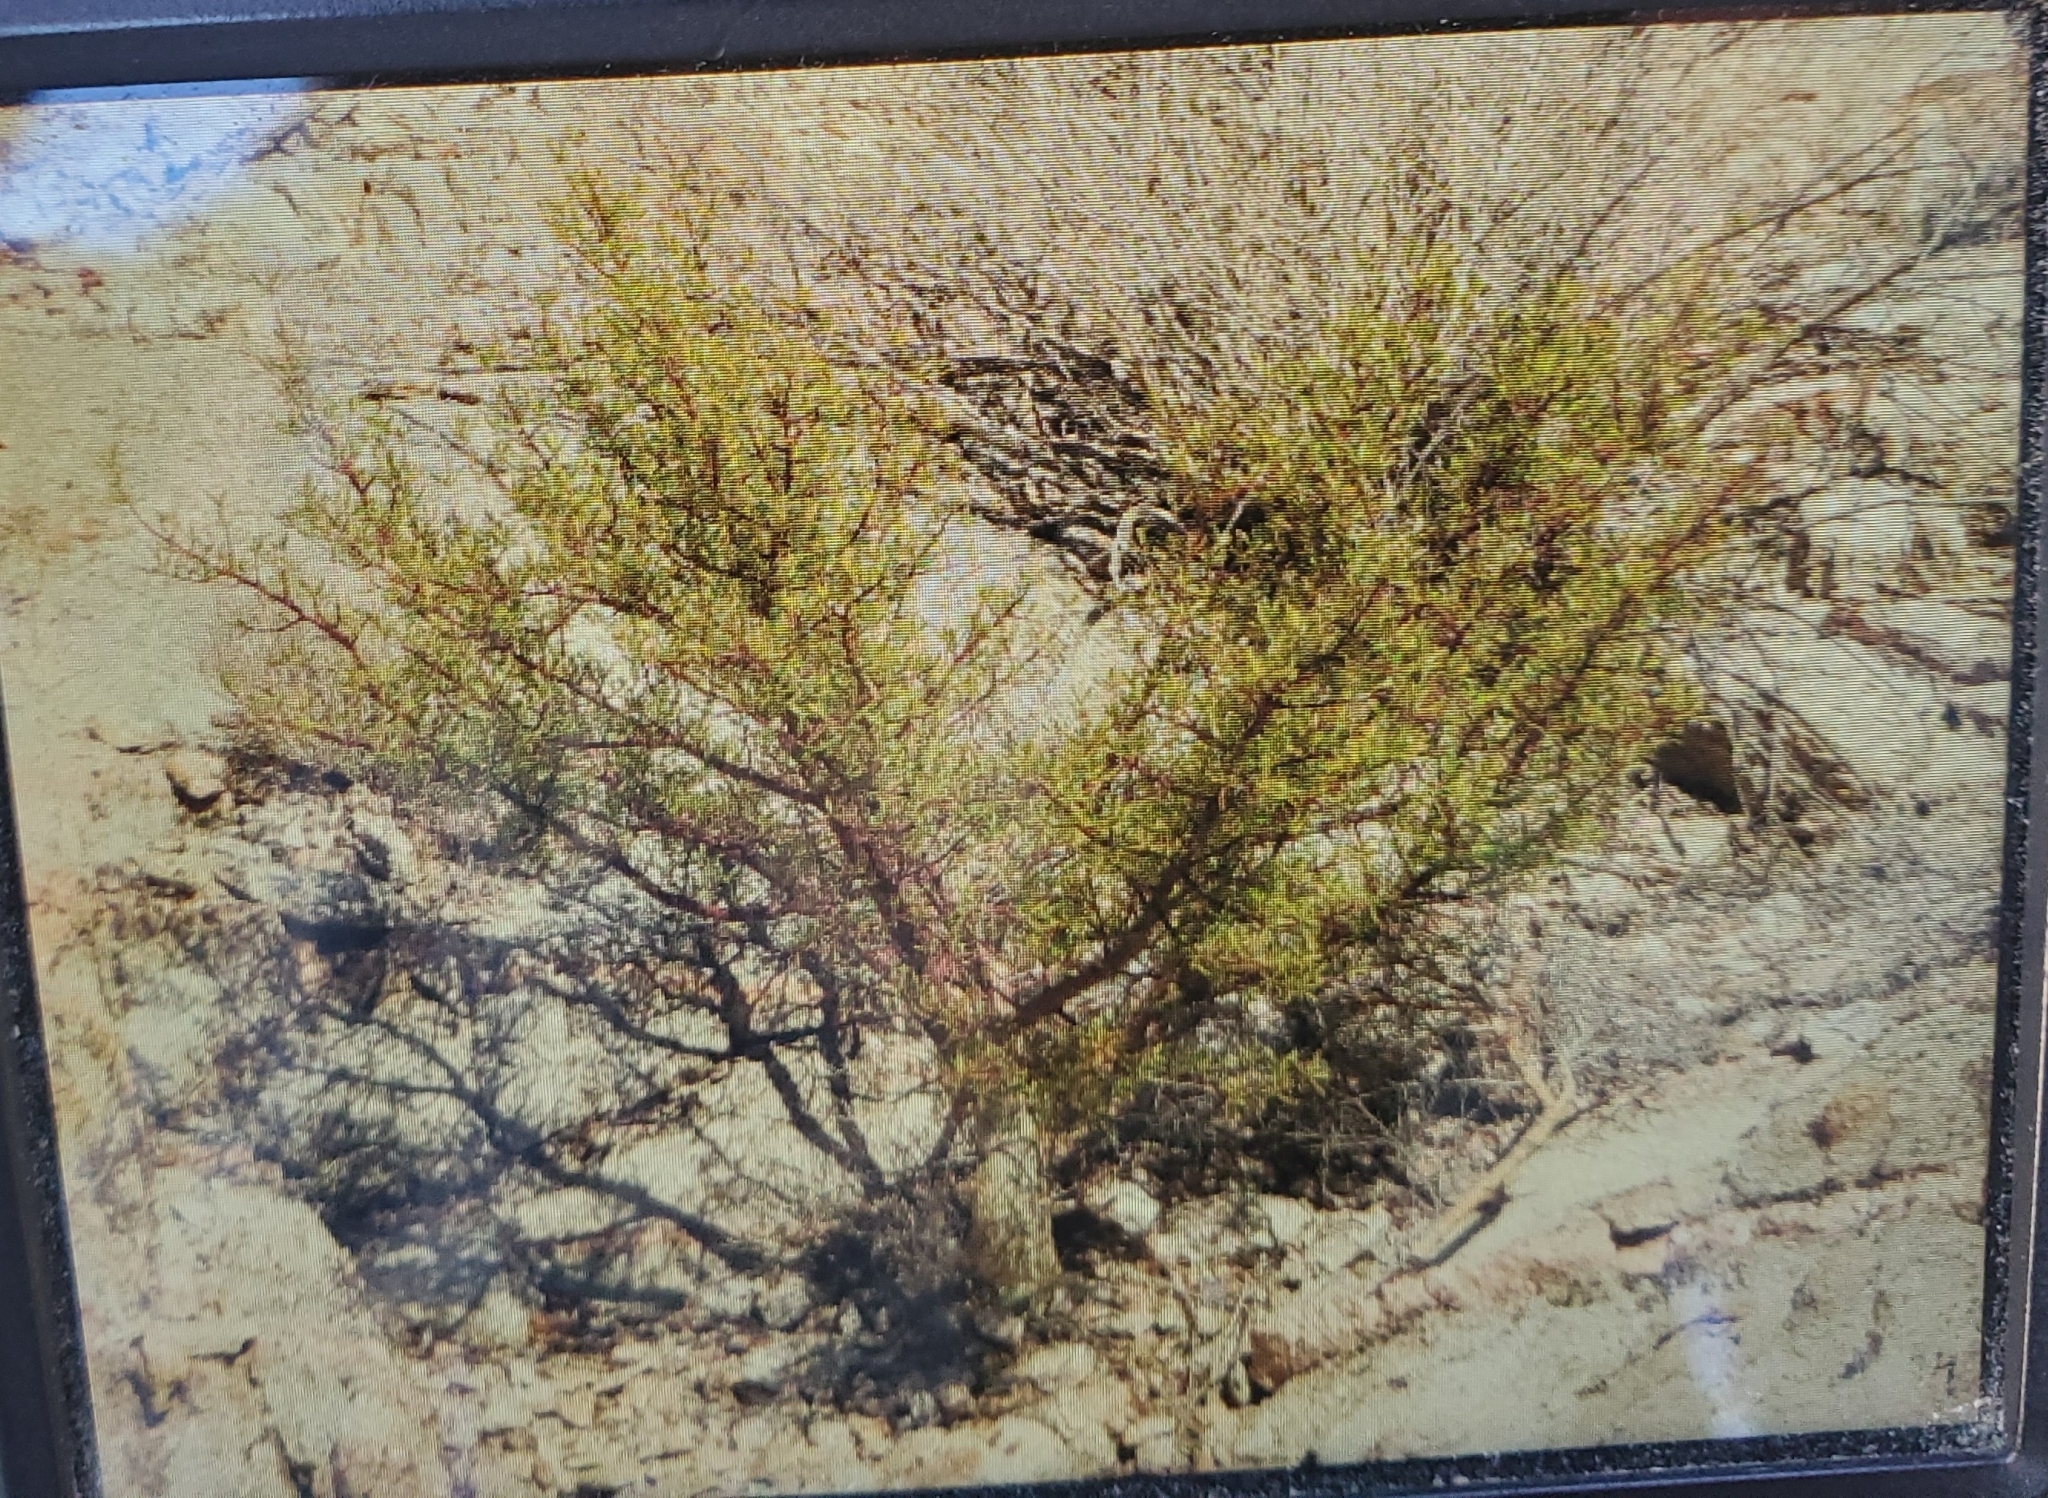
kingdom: Plantae
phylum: Tracheophyta
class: Magnoliopsida
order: Sapindales
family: Burseraceae
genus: Bursera
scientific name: Bursera microphylla
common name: Elephant tree
